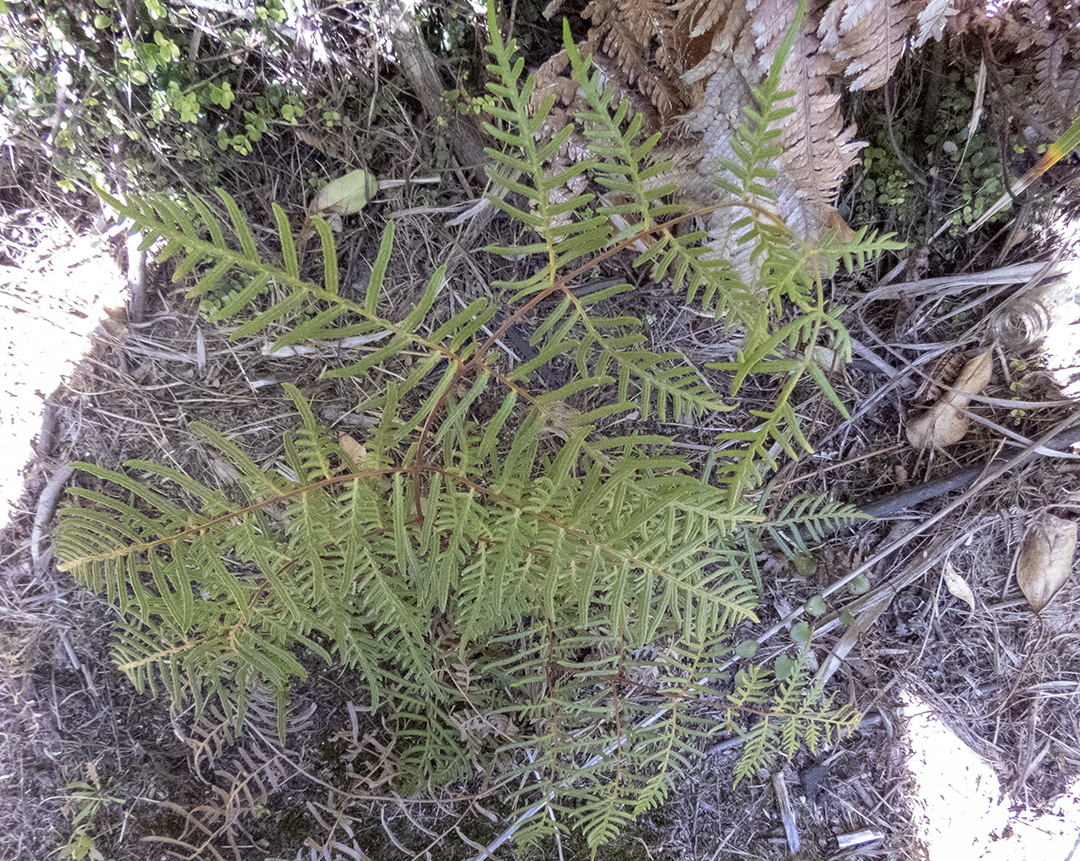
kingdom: Plantae
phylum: Tracheophyta
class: Polypodiopsida
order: Polypodiales
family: Dennstaedtiaceae
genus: Pteridium
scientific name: Pteridium esculentum
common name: Bracken fern
